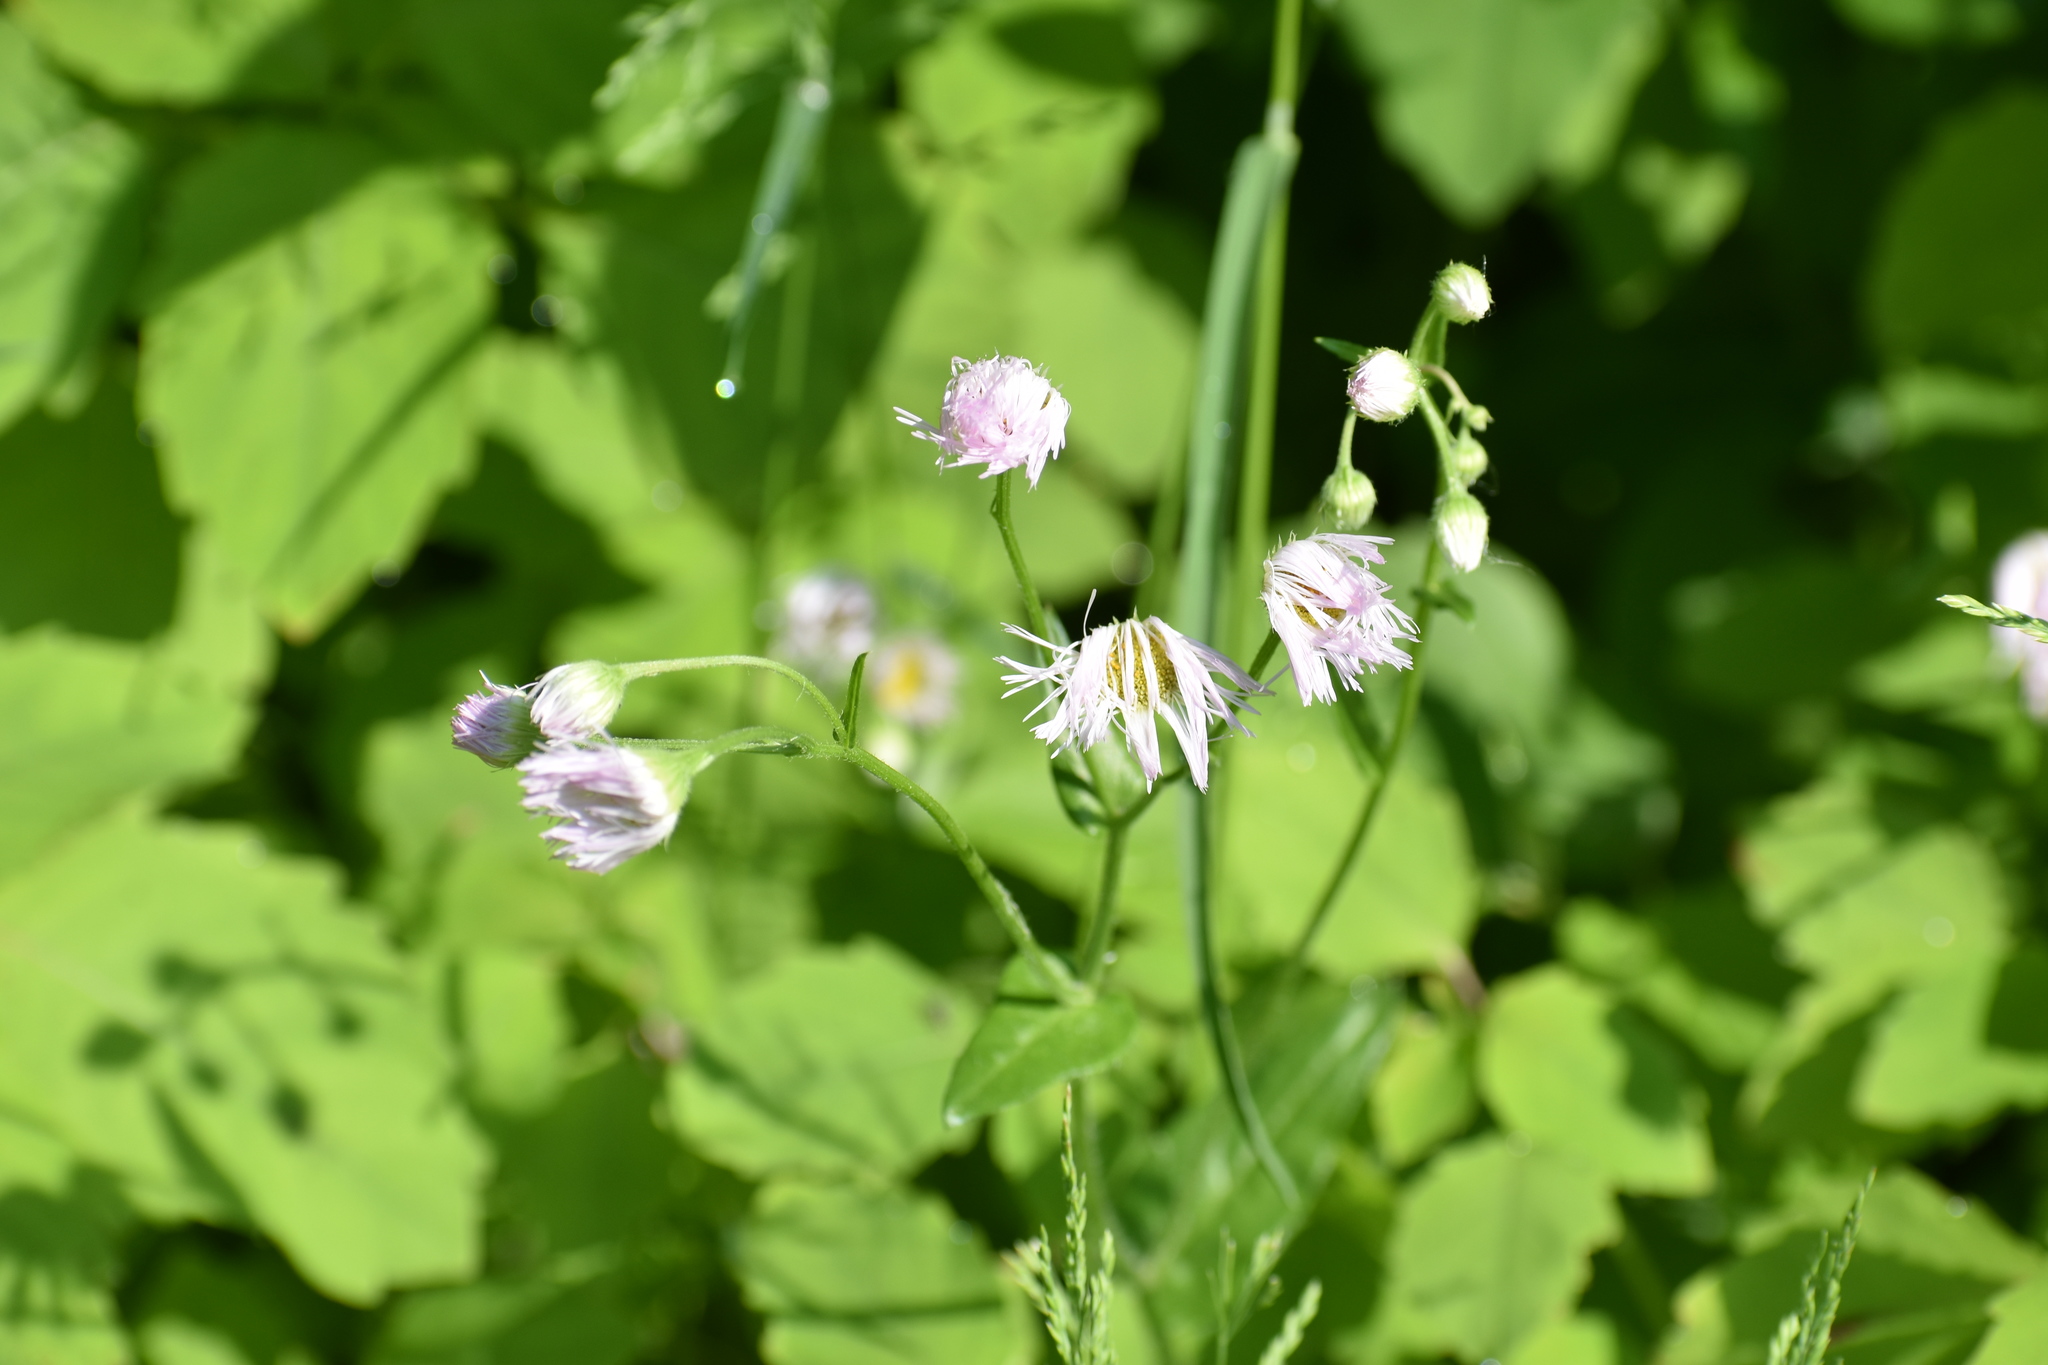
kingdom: Plantae
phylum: Tracheophyta
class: Magnoliopsida
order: Asterales
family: Asteraceae
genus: Erigeron
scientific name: Erigeron philadelphicus
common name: Robin's-plantain
